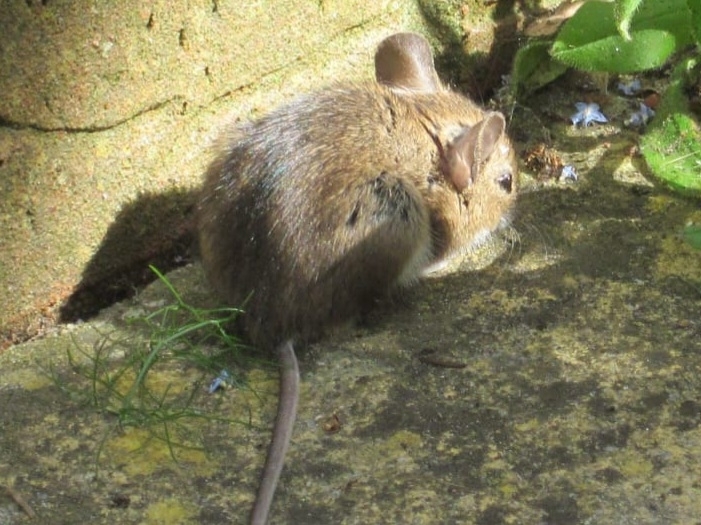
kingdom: Animalia
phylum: Chordata
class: Mammalia
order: Rodentia
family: Muridae
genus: Apodemus
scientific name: Apodemus sylvaticus
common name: Wood mouse
